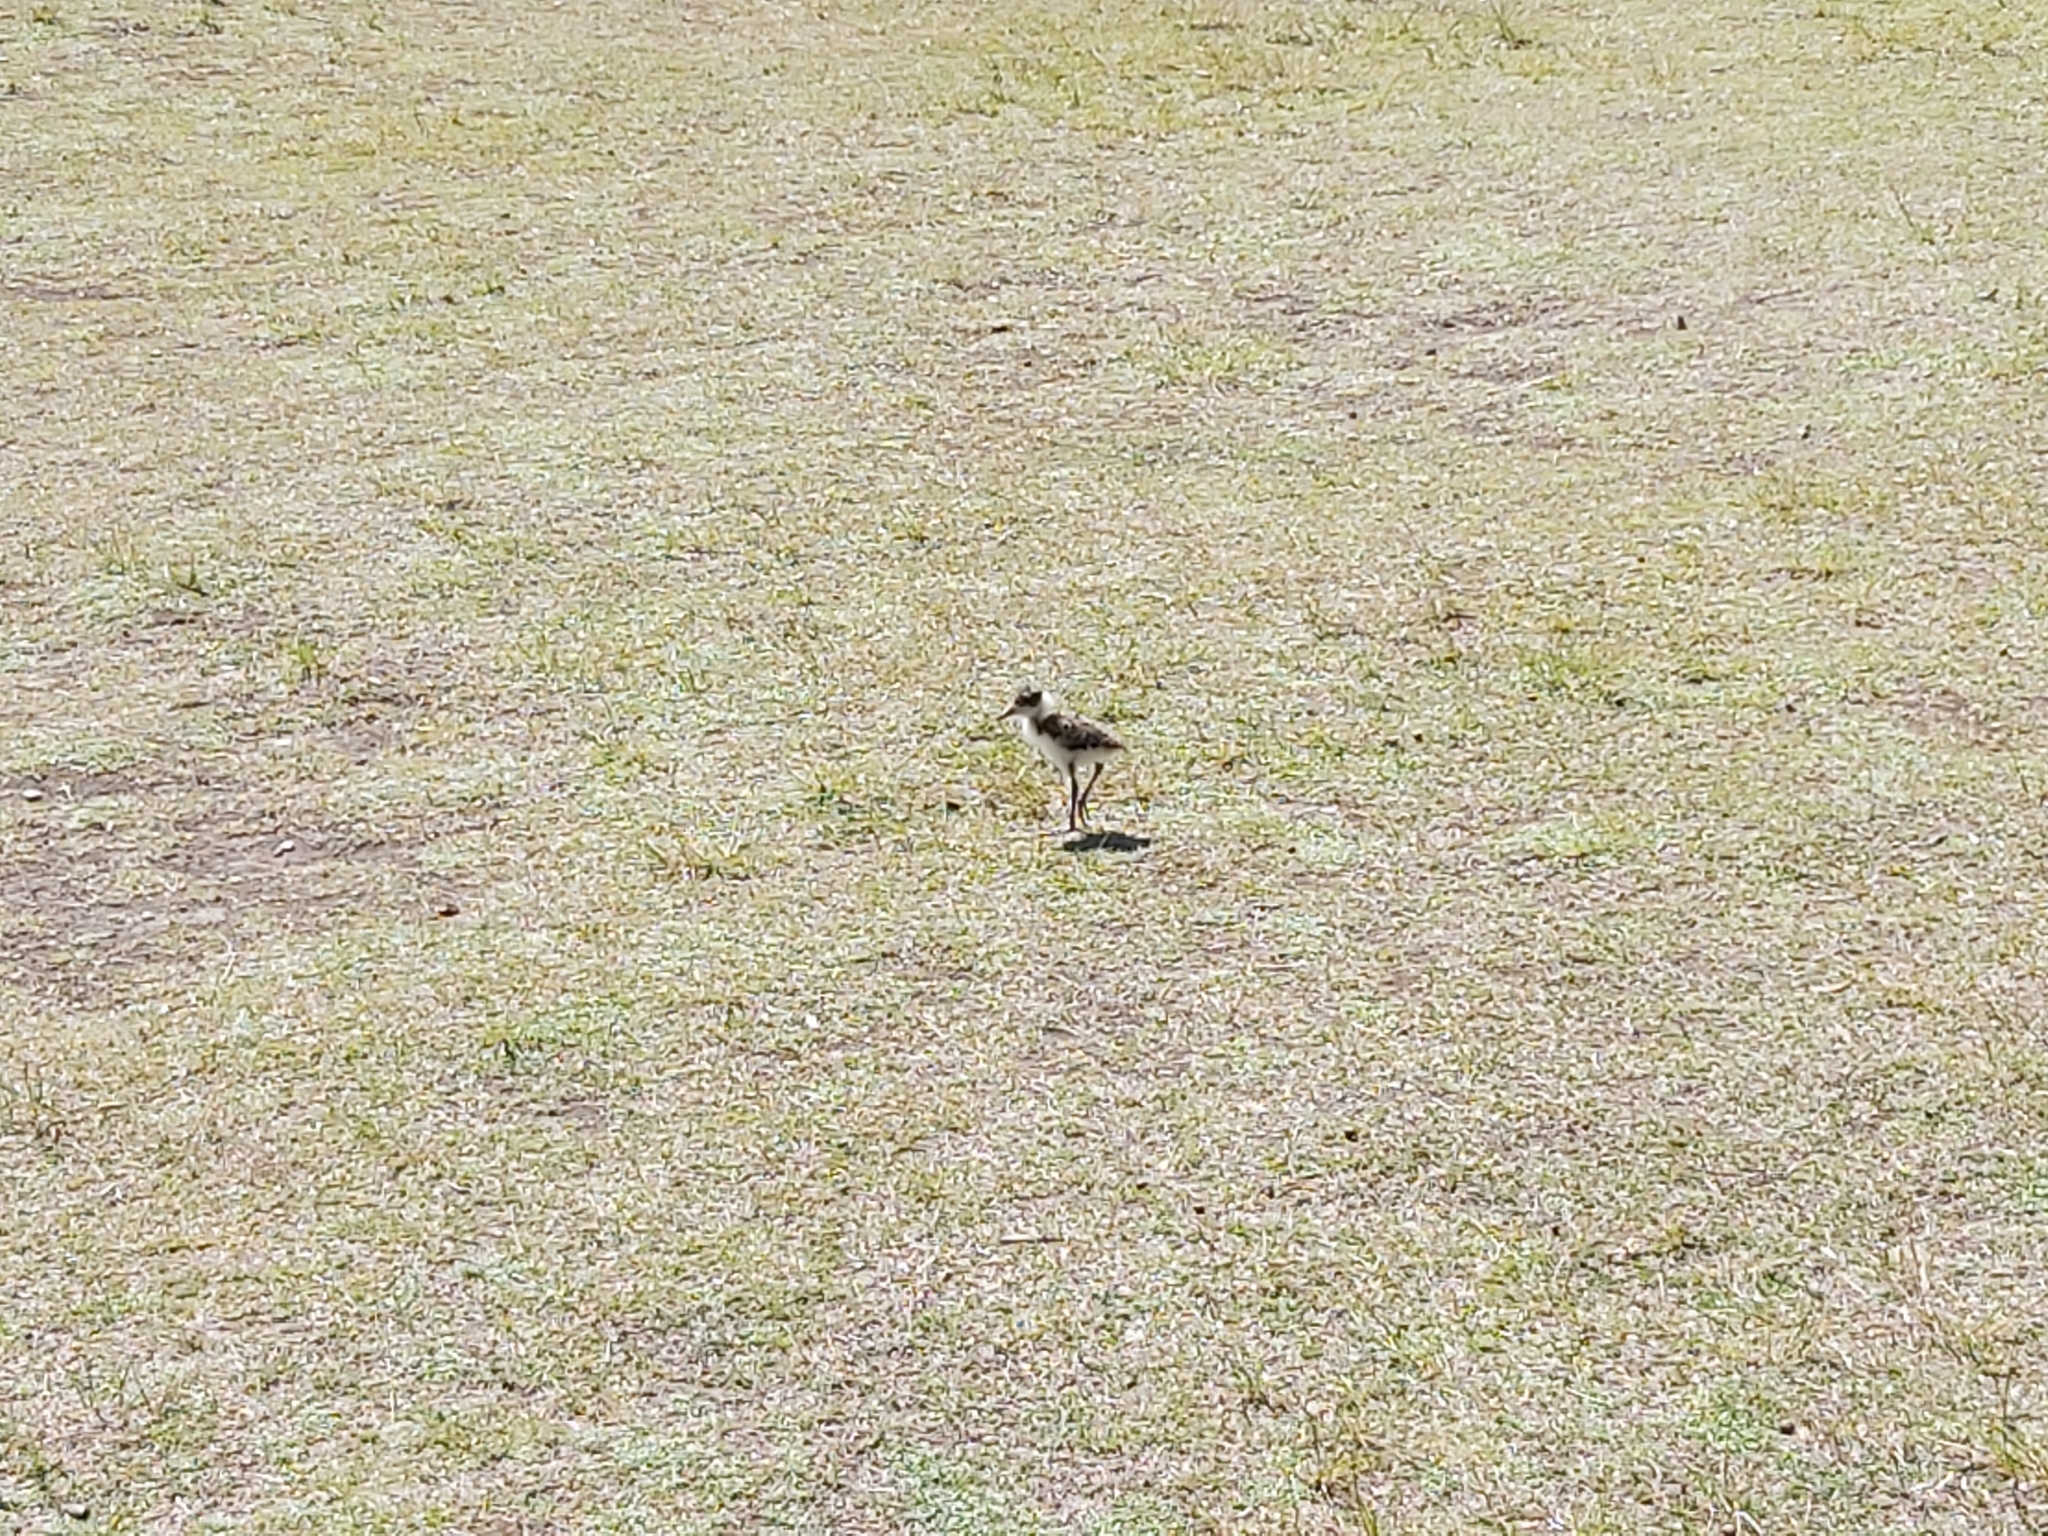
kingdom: Animalia
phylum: Chordata
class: Aves
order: Charadriiformes
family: Charadriidae
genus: Vanellus
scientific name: Vanellus miles
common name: Masked lapwing
